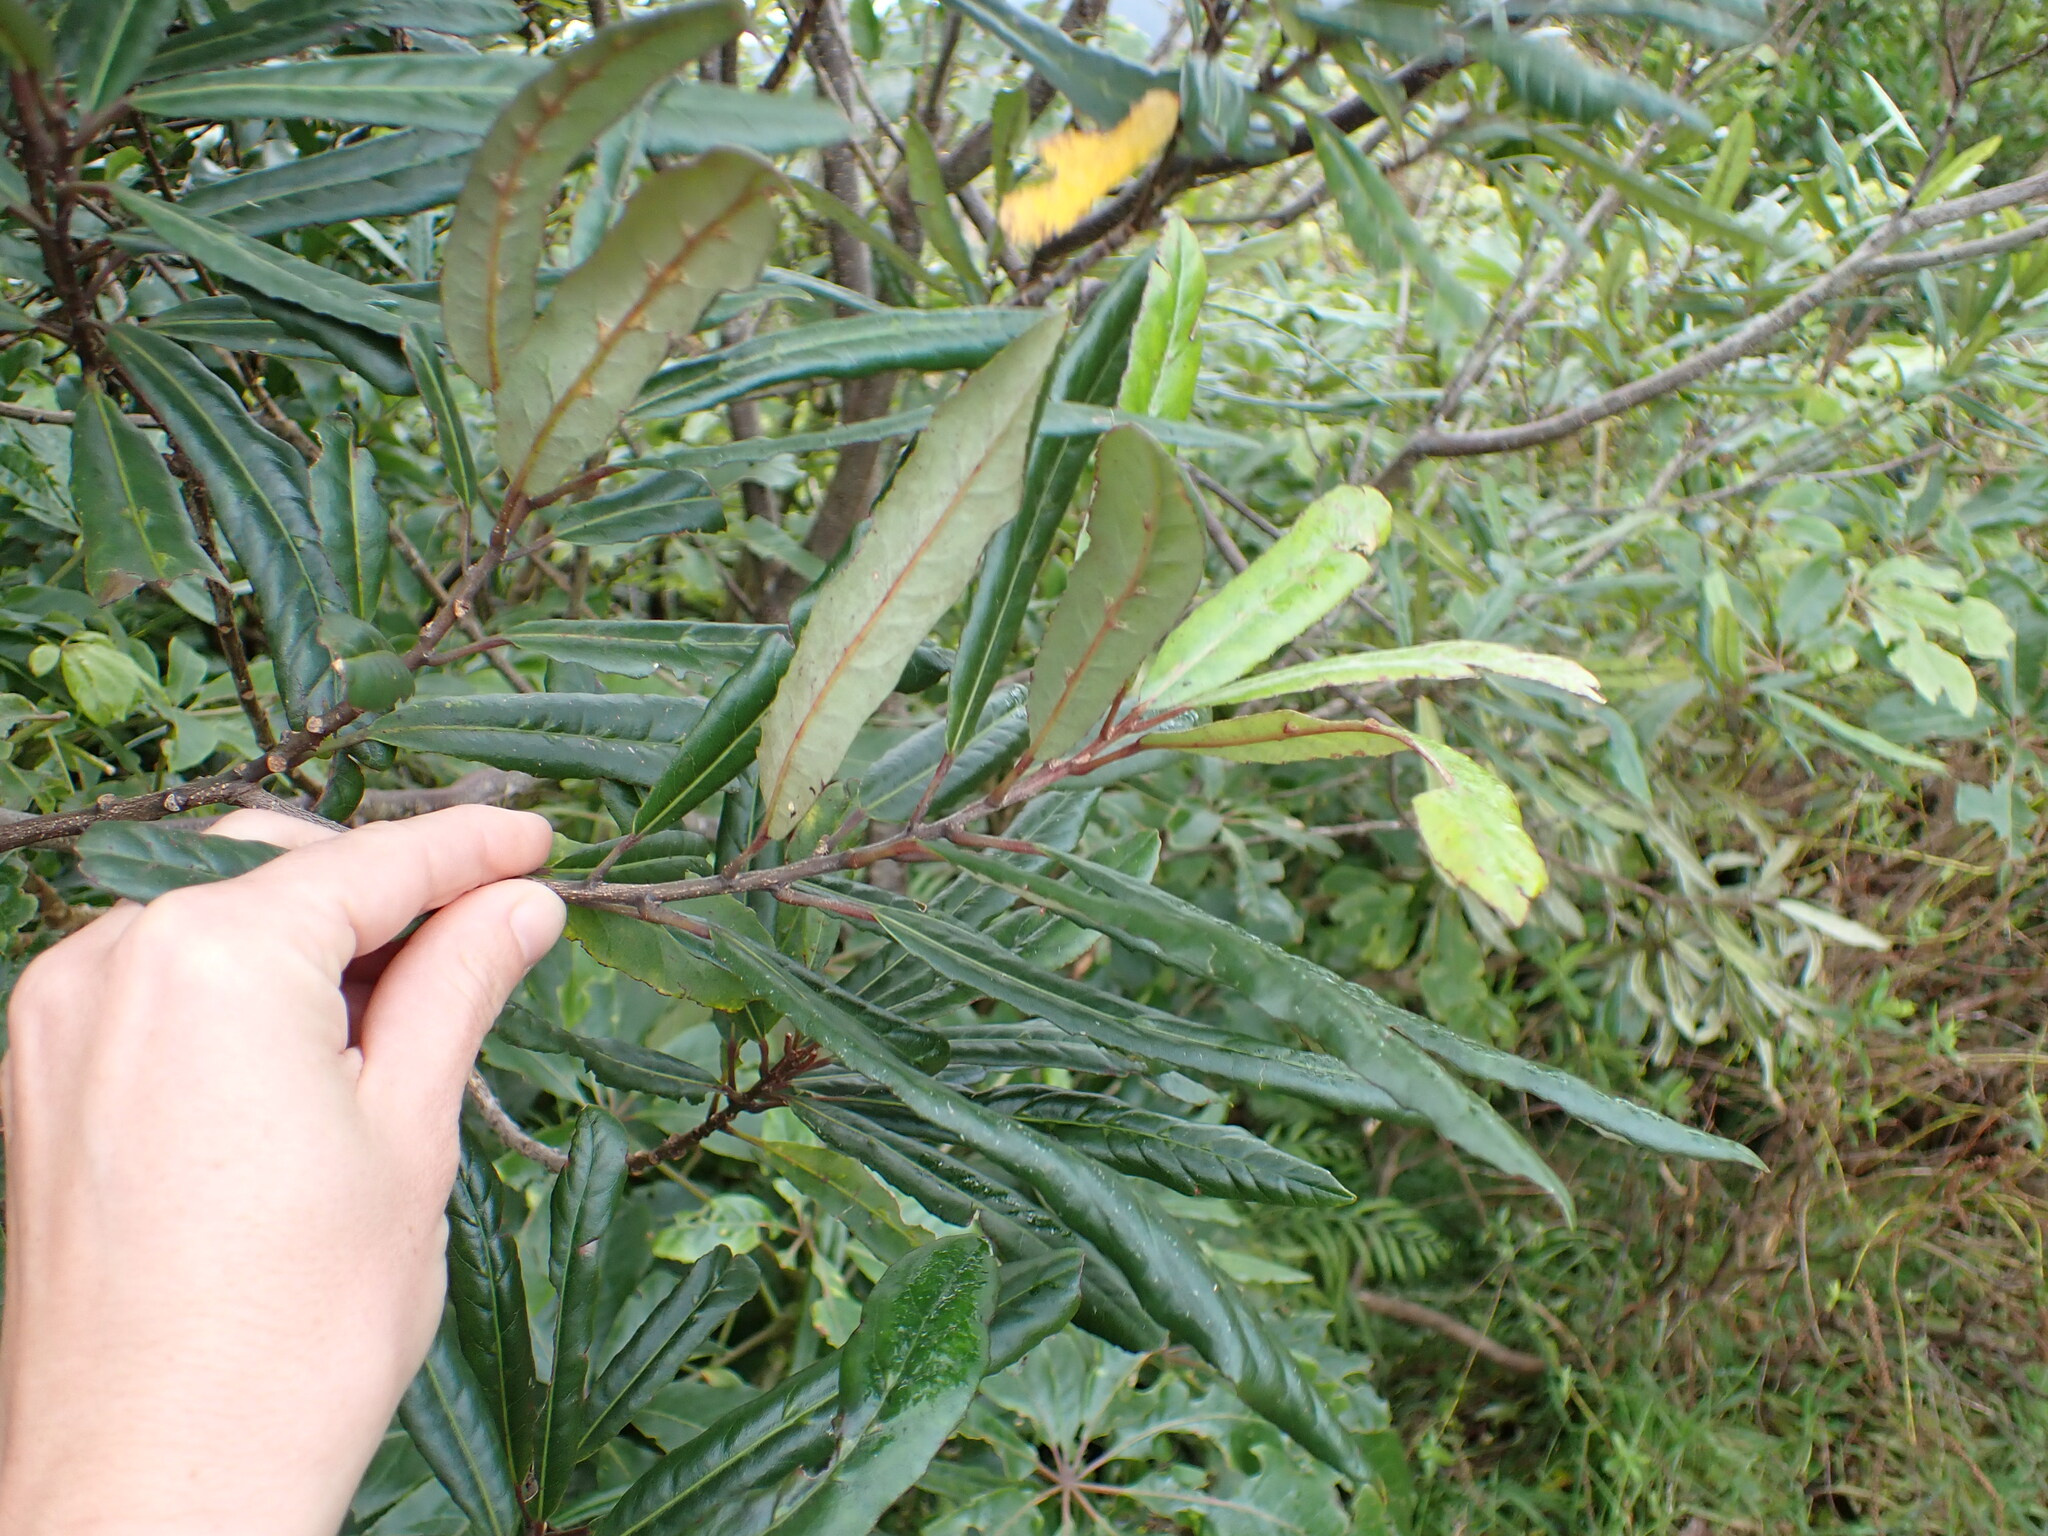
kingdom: Plantae
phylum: Tracheophyta
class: Magnoliopsida
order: Oxalidales
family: Elaeocarpaceae
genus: Elaeocarpus
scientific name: Elaeocarpus dentatus
